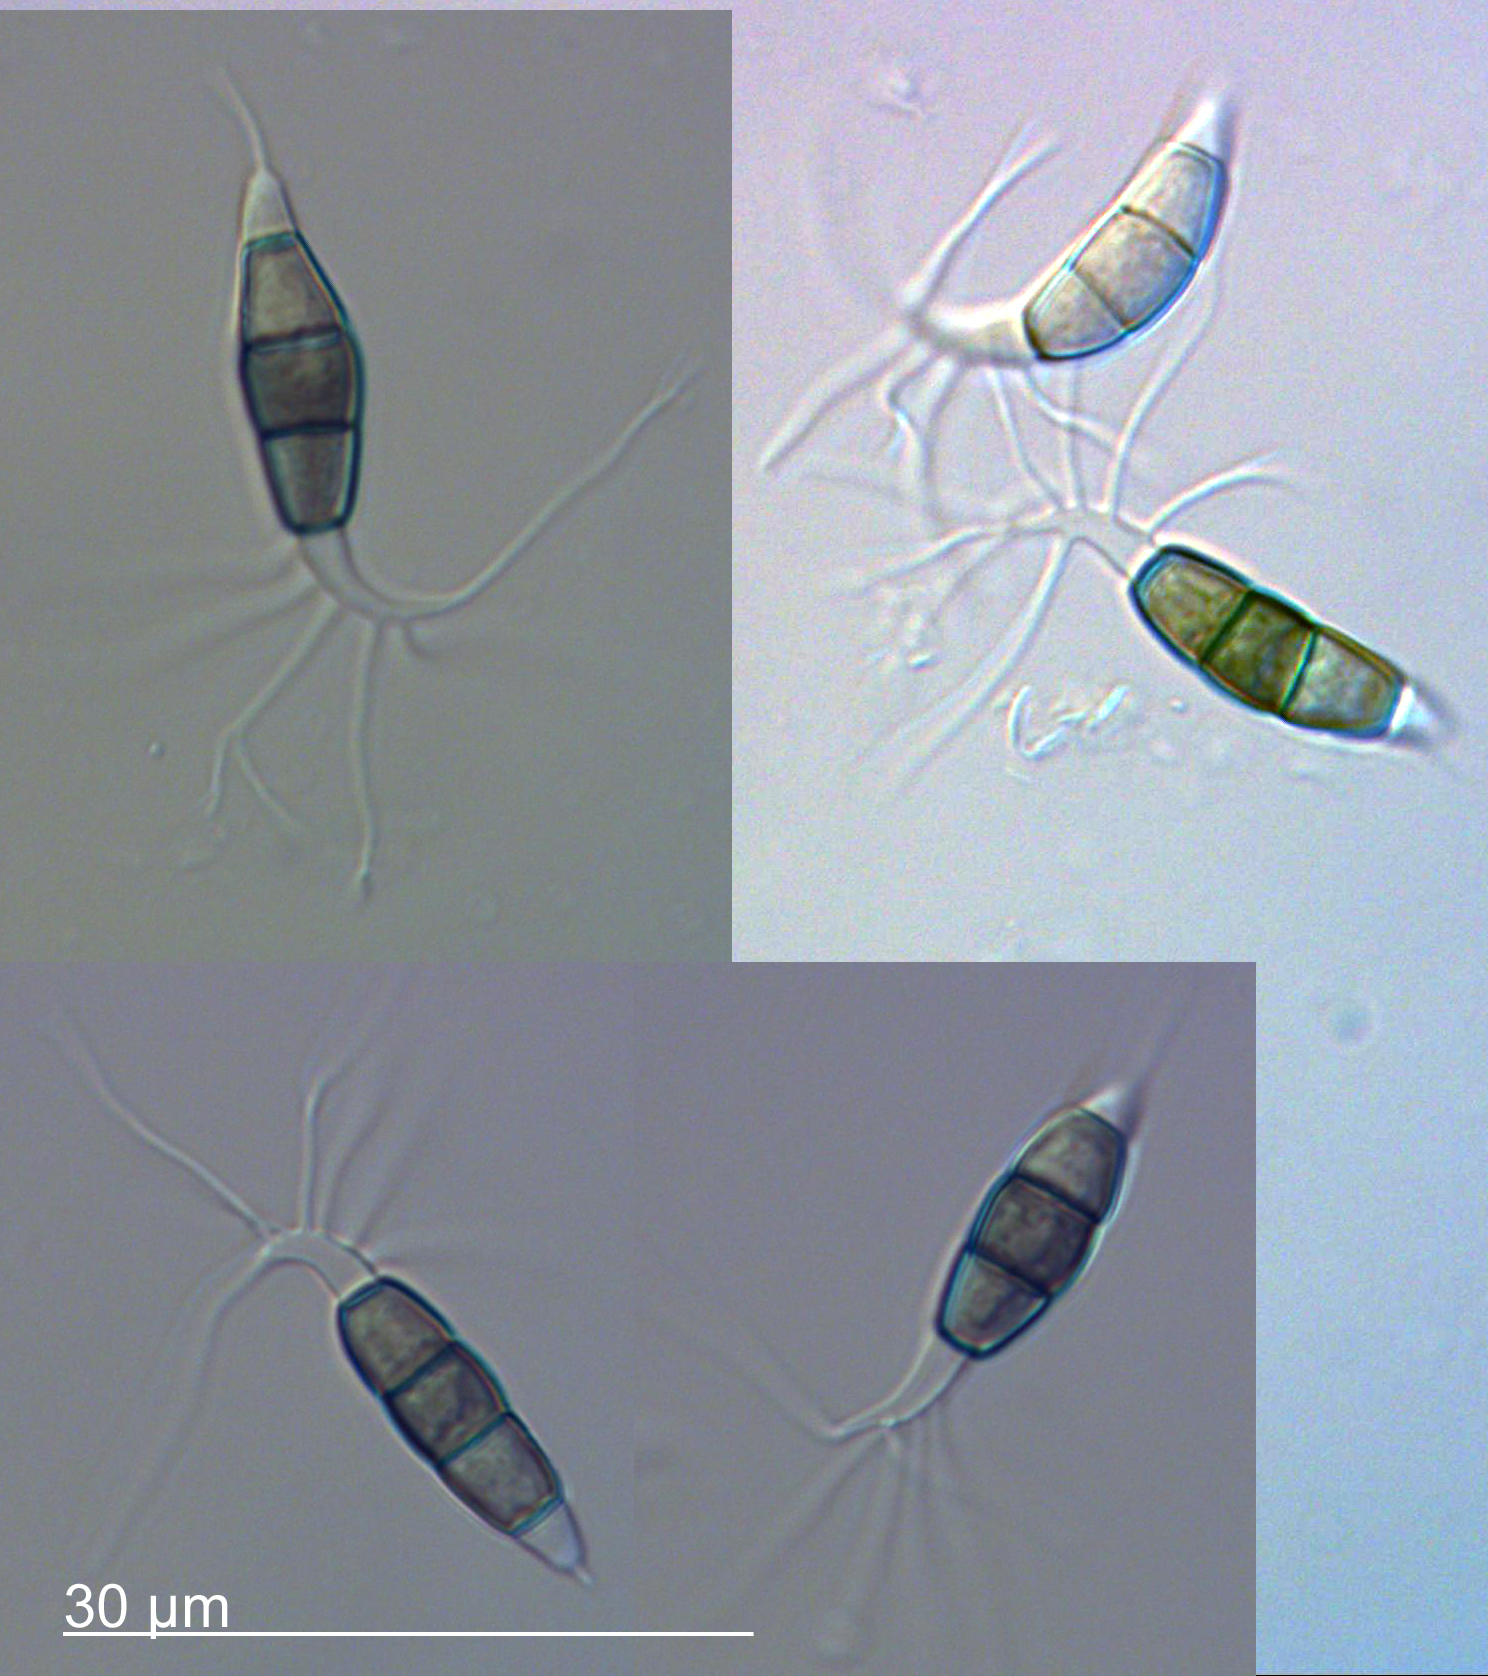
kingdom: Fungi
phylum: Ascomycota
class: Sordariomycetes
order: Amphisphaeriales
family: Amphisphaeriaceae
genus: Lepteutypa
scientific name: Lepteutypa podocarpi
